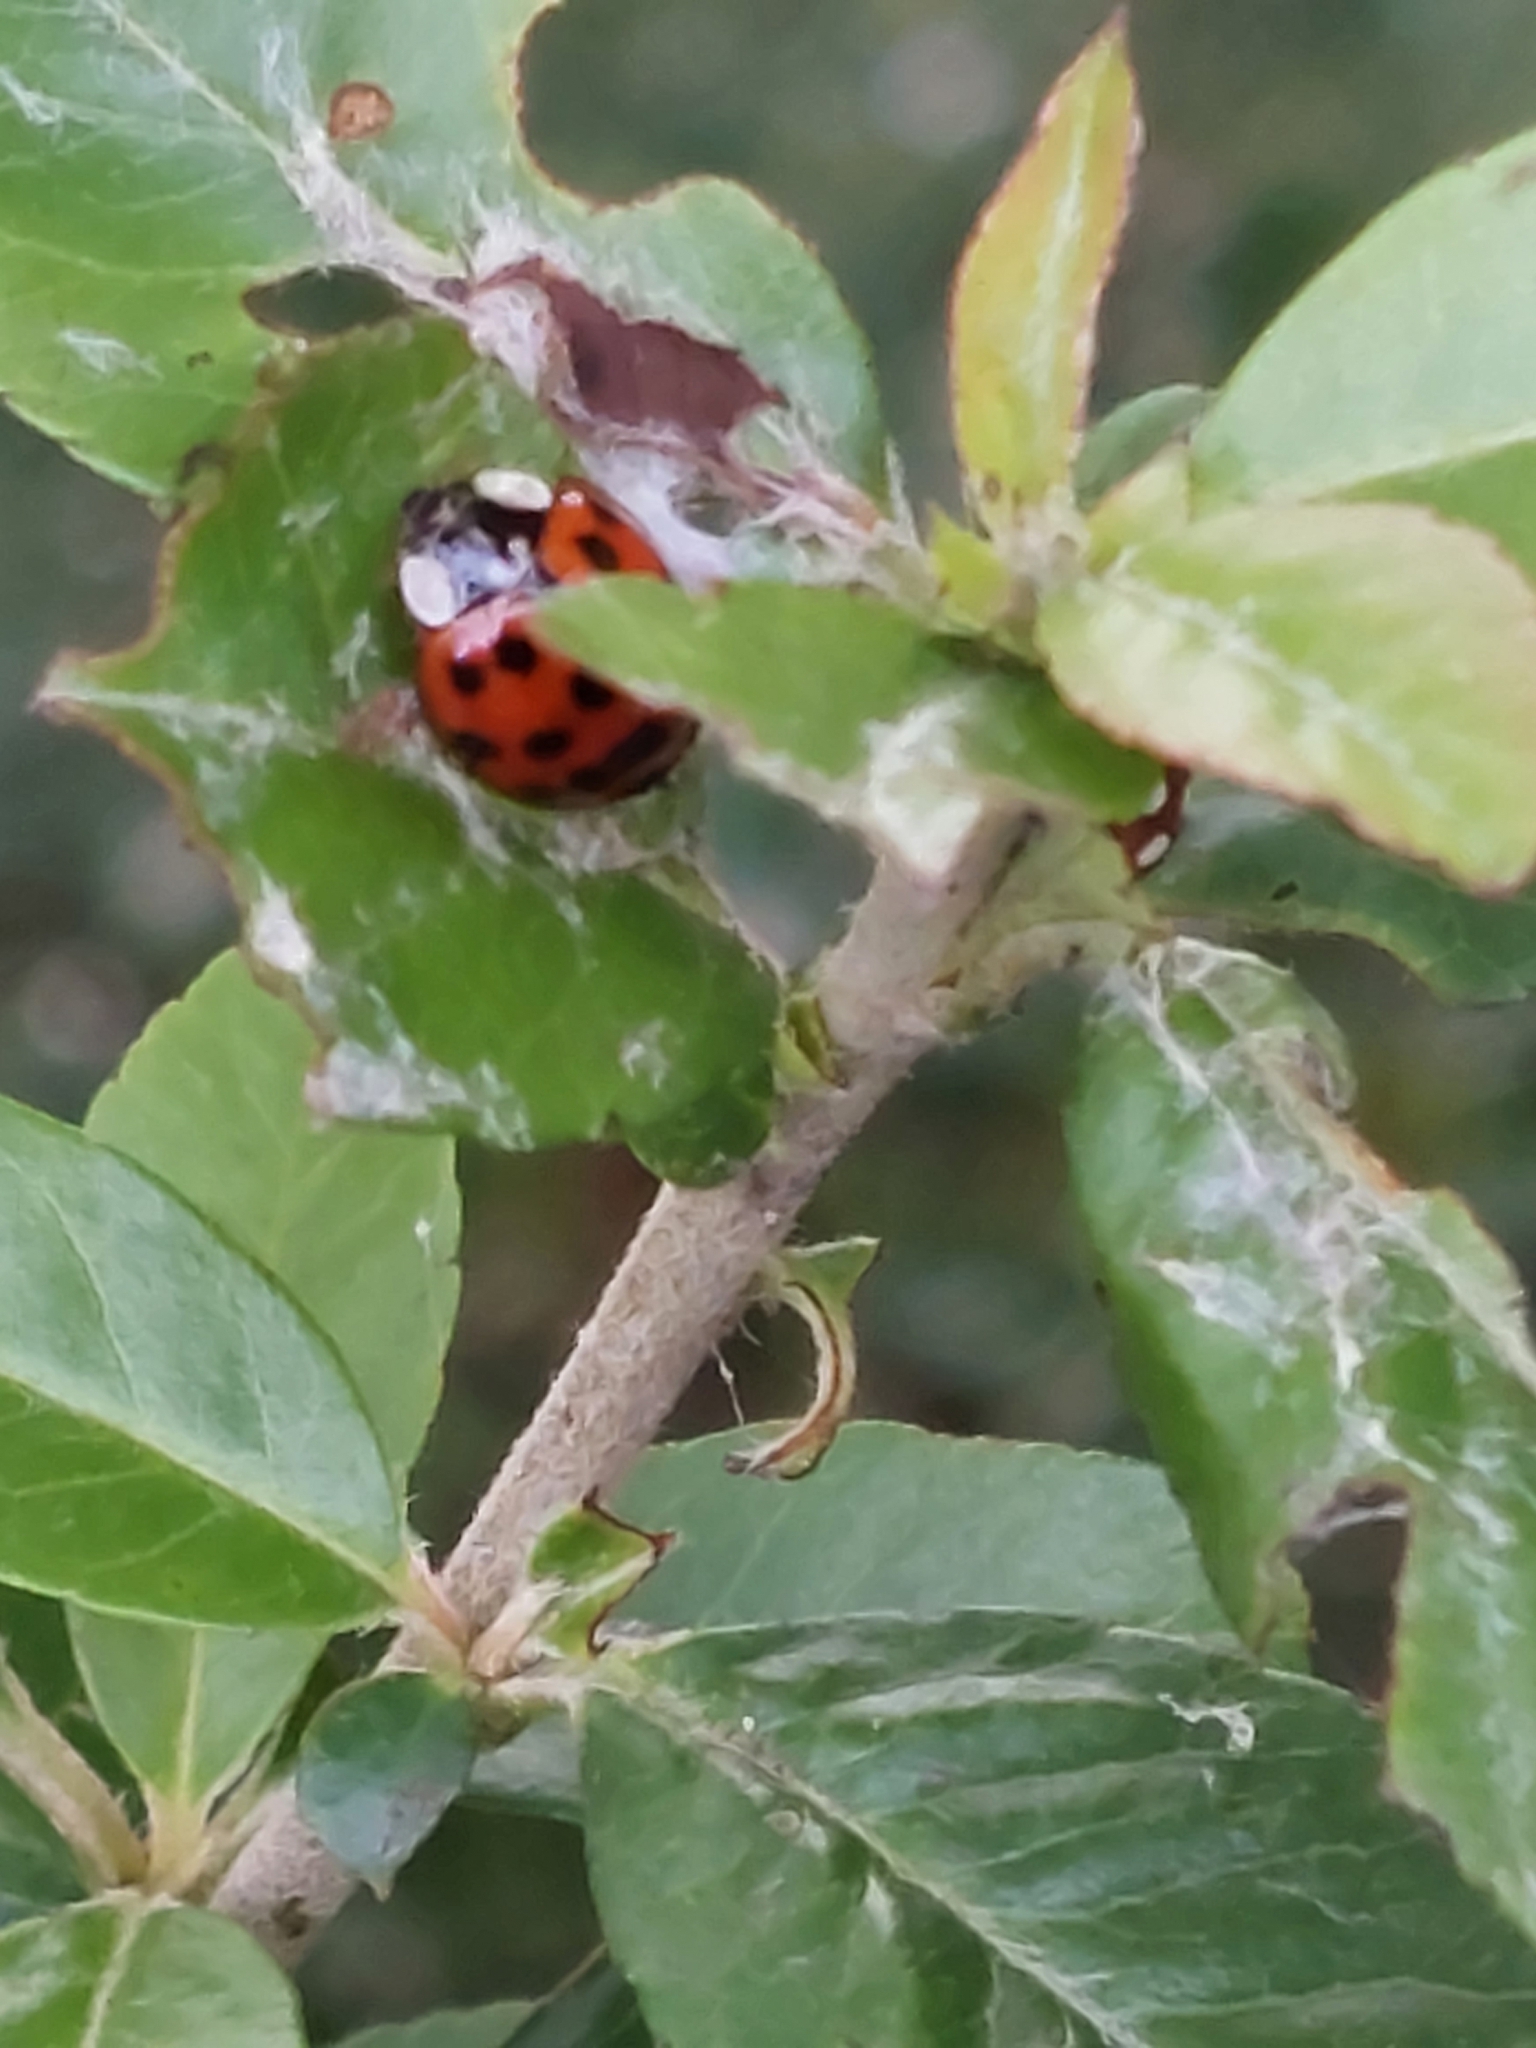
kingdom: Animalia
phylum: Arthropoda
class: Insecta
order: Coleoptera
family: Coccinellidae
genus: Harmonia
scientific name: Harmonia axyridis
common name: Harlequin ladybird
